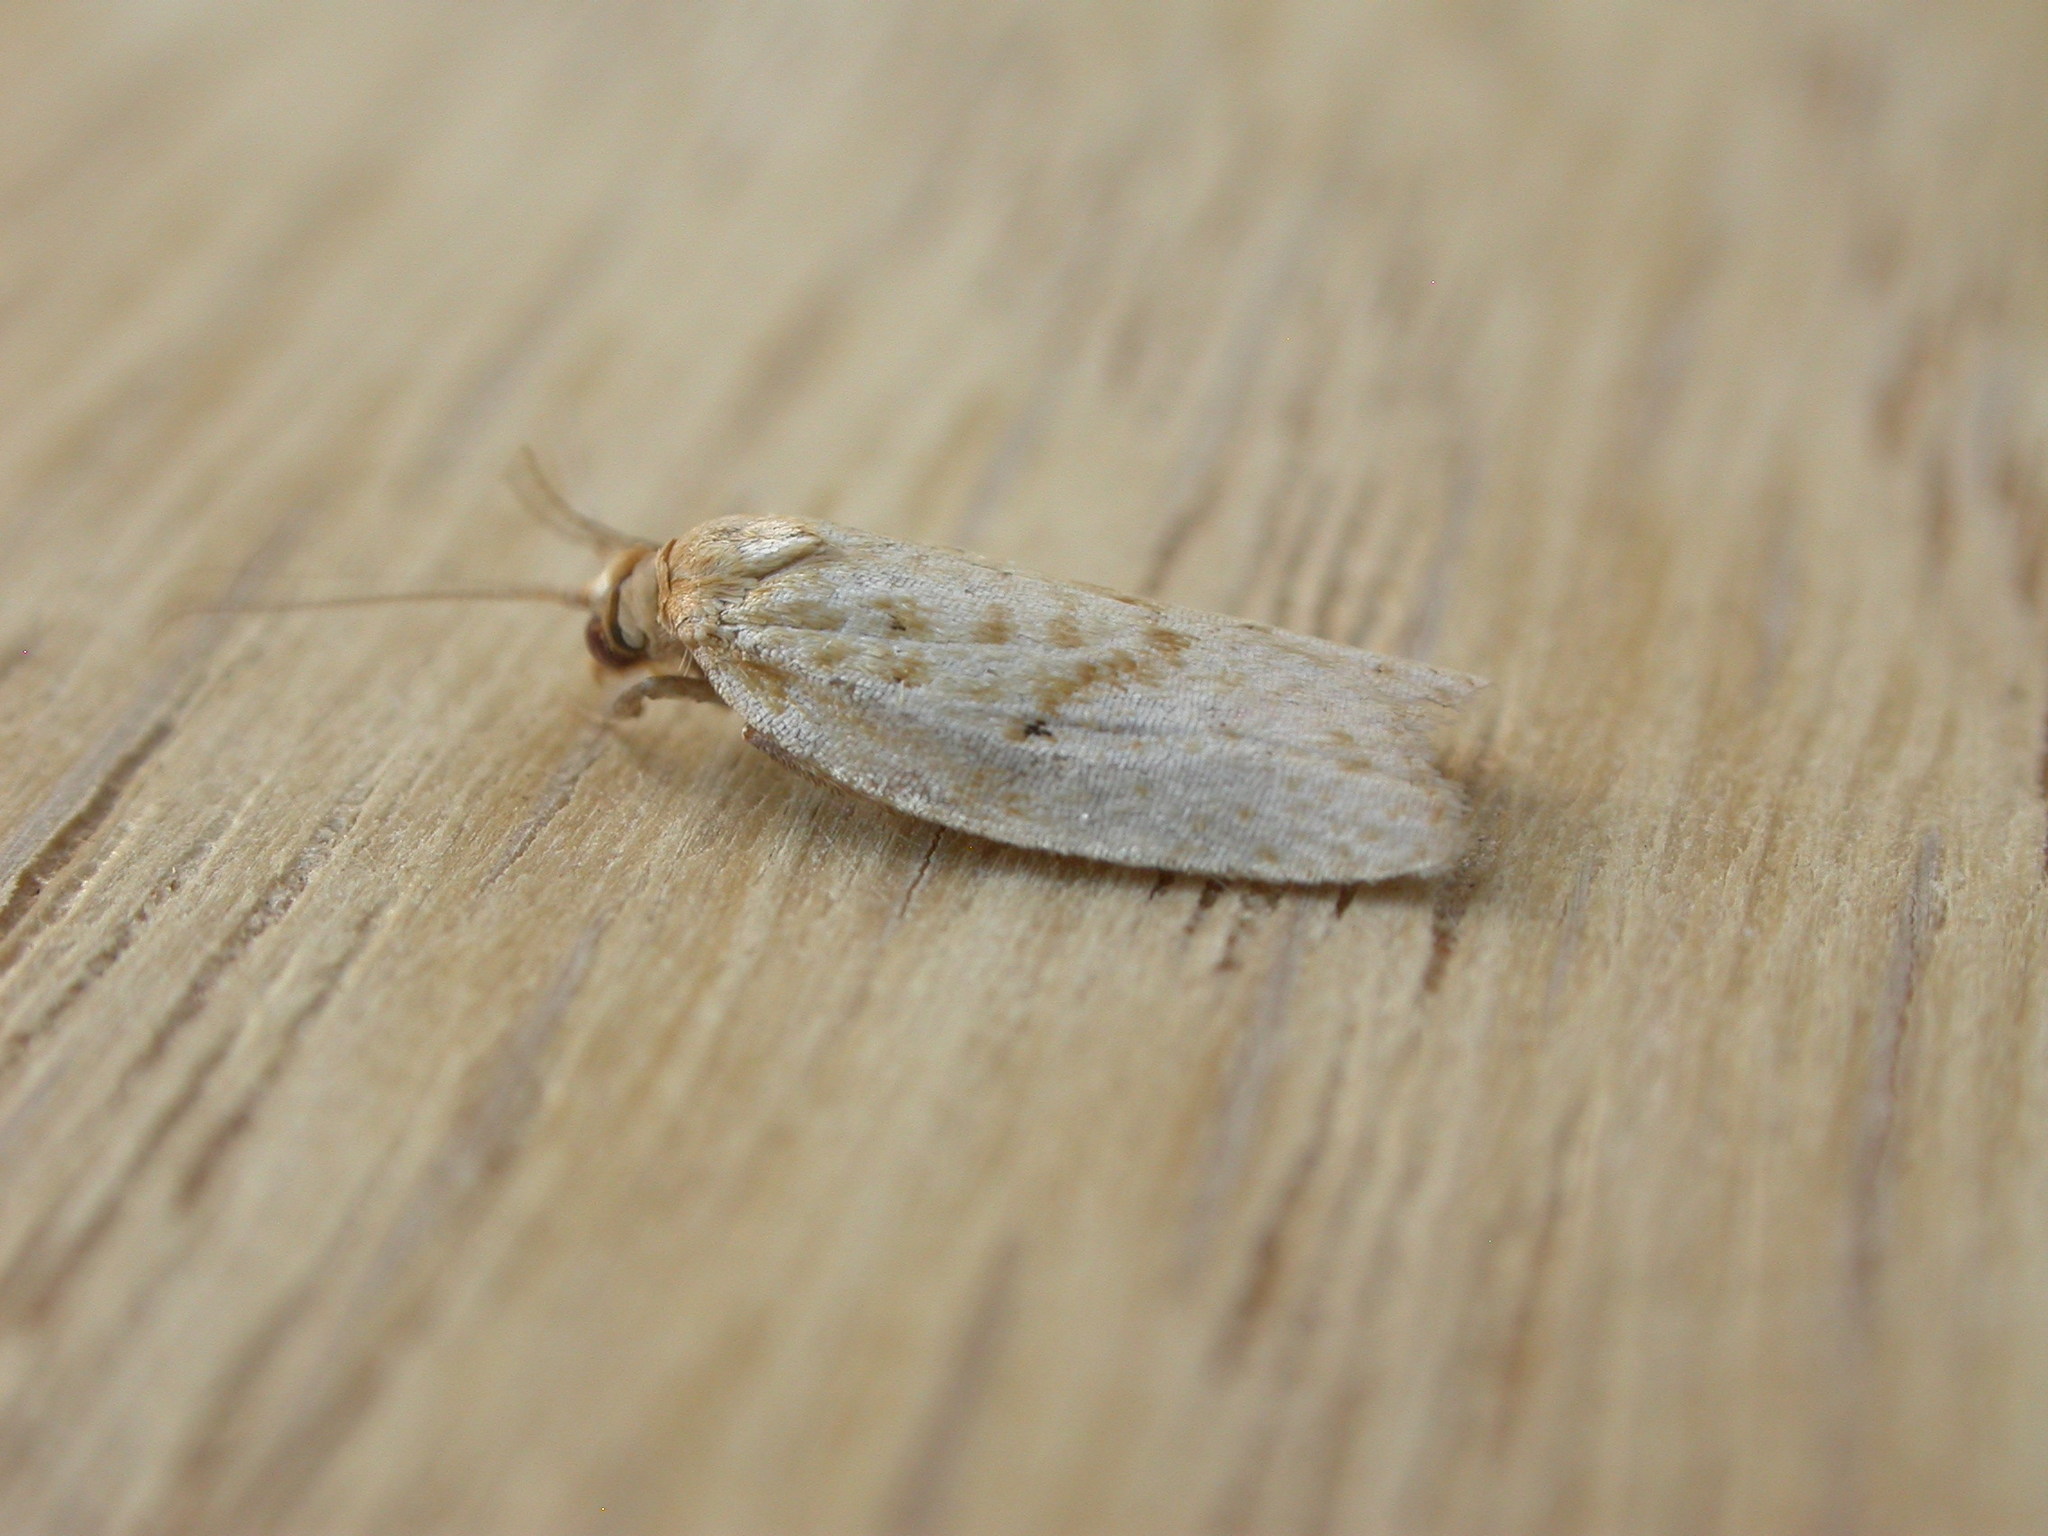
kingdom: Animalia
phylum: Arthropoda
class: Insecta
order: Lepidoptera
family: Tortricidae
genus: Clepsis
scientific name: Clepsis
